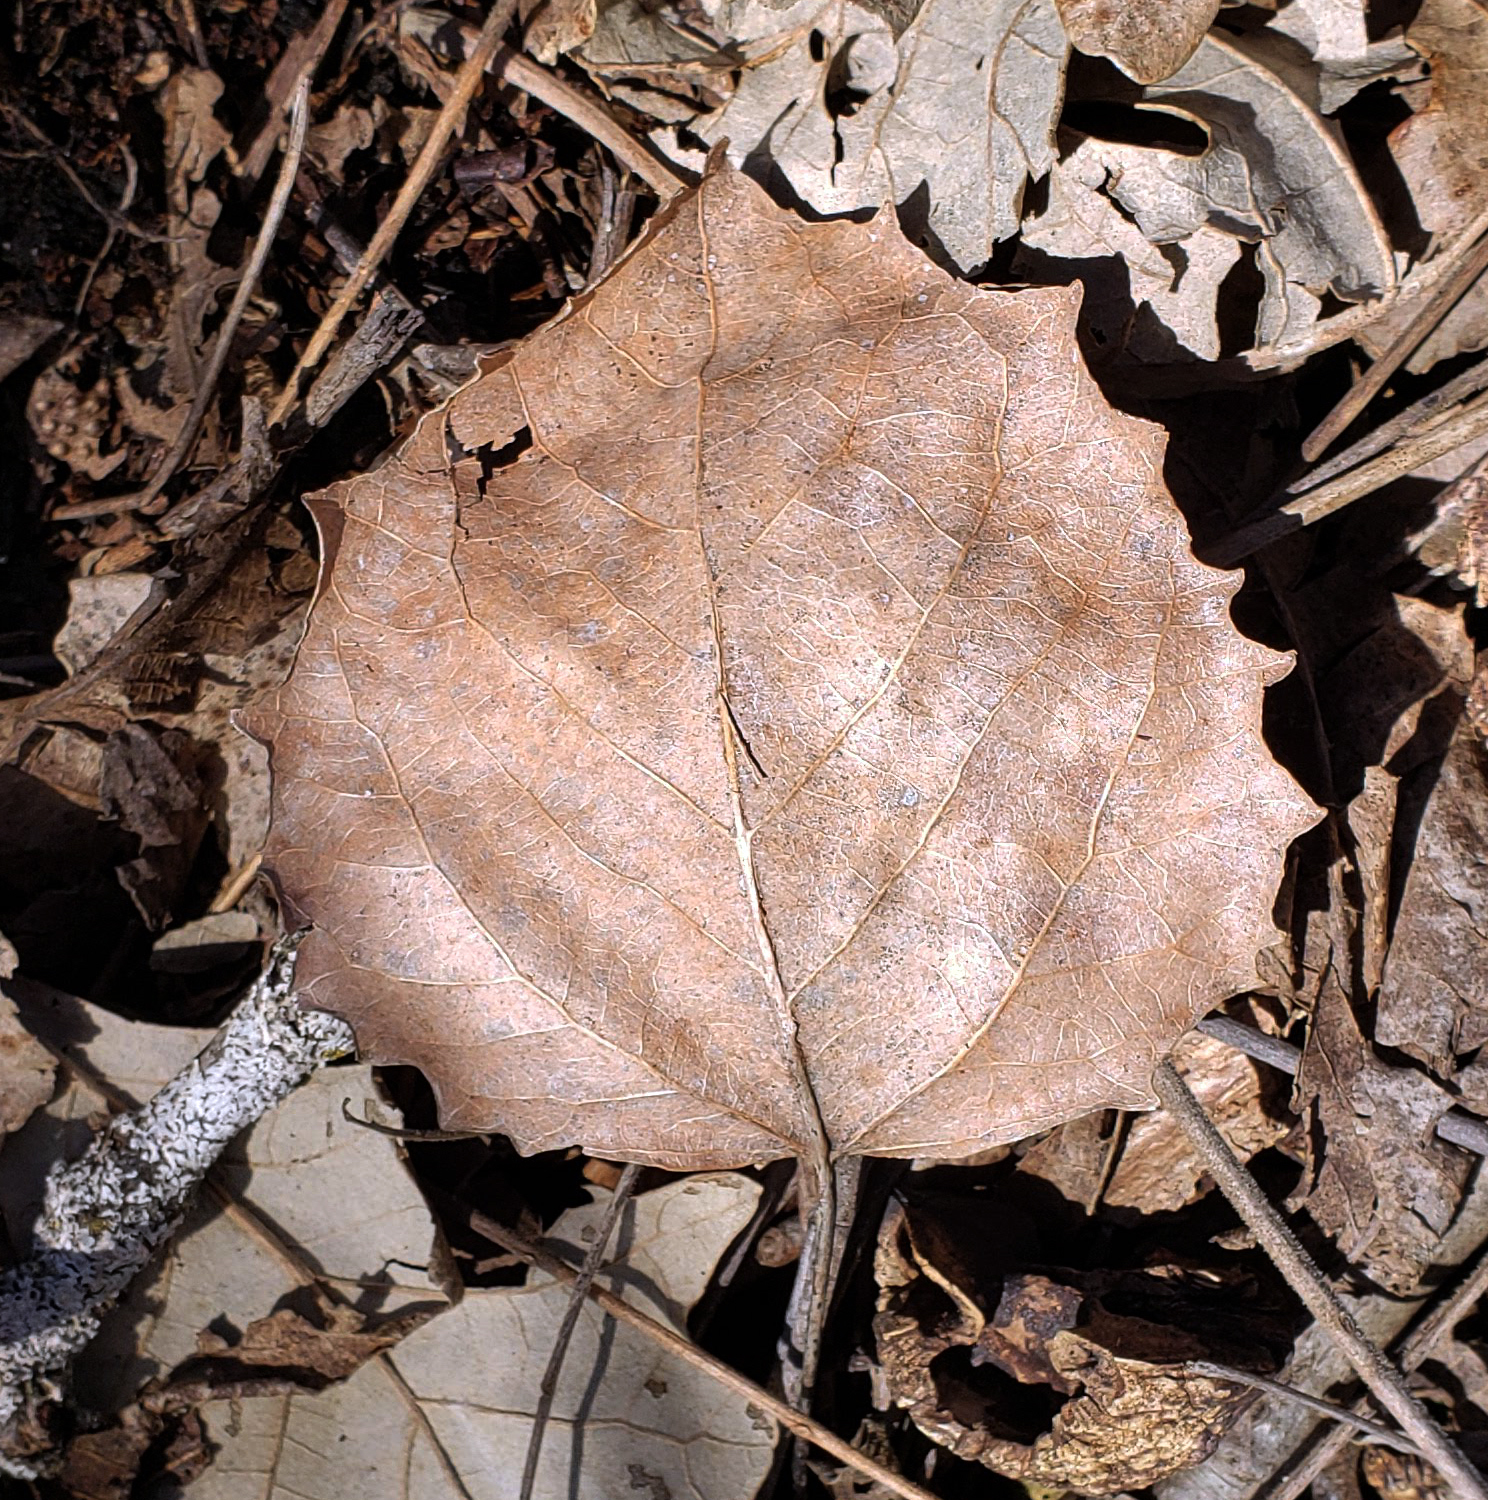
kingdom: Plantae
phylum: Tracheophyta
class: Magnoliopsida
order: Malpighiales
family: Salicaceae
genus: Populus
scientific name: Populus grandidentata
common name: Bigtooth aspen
